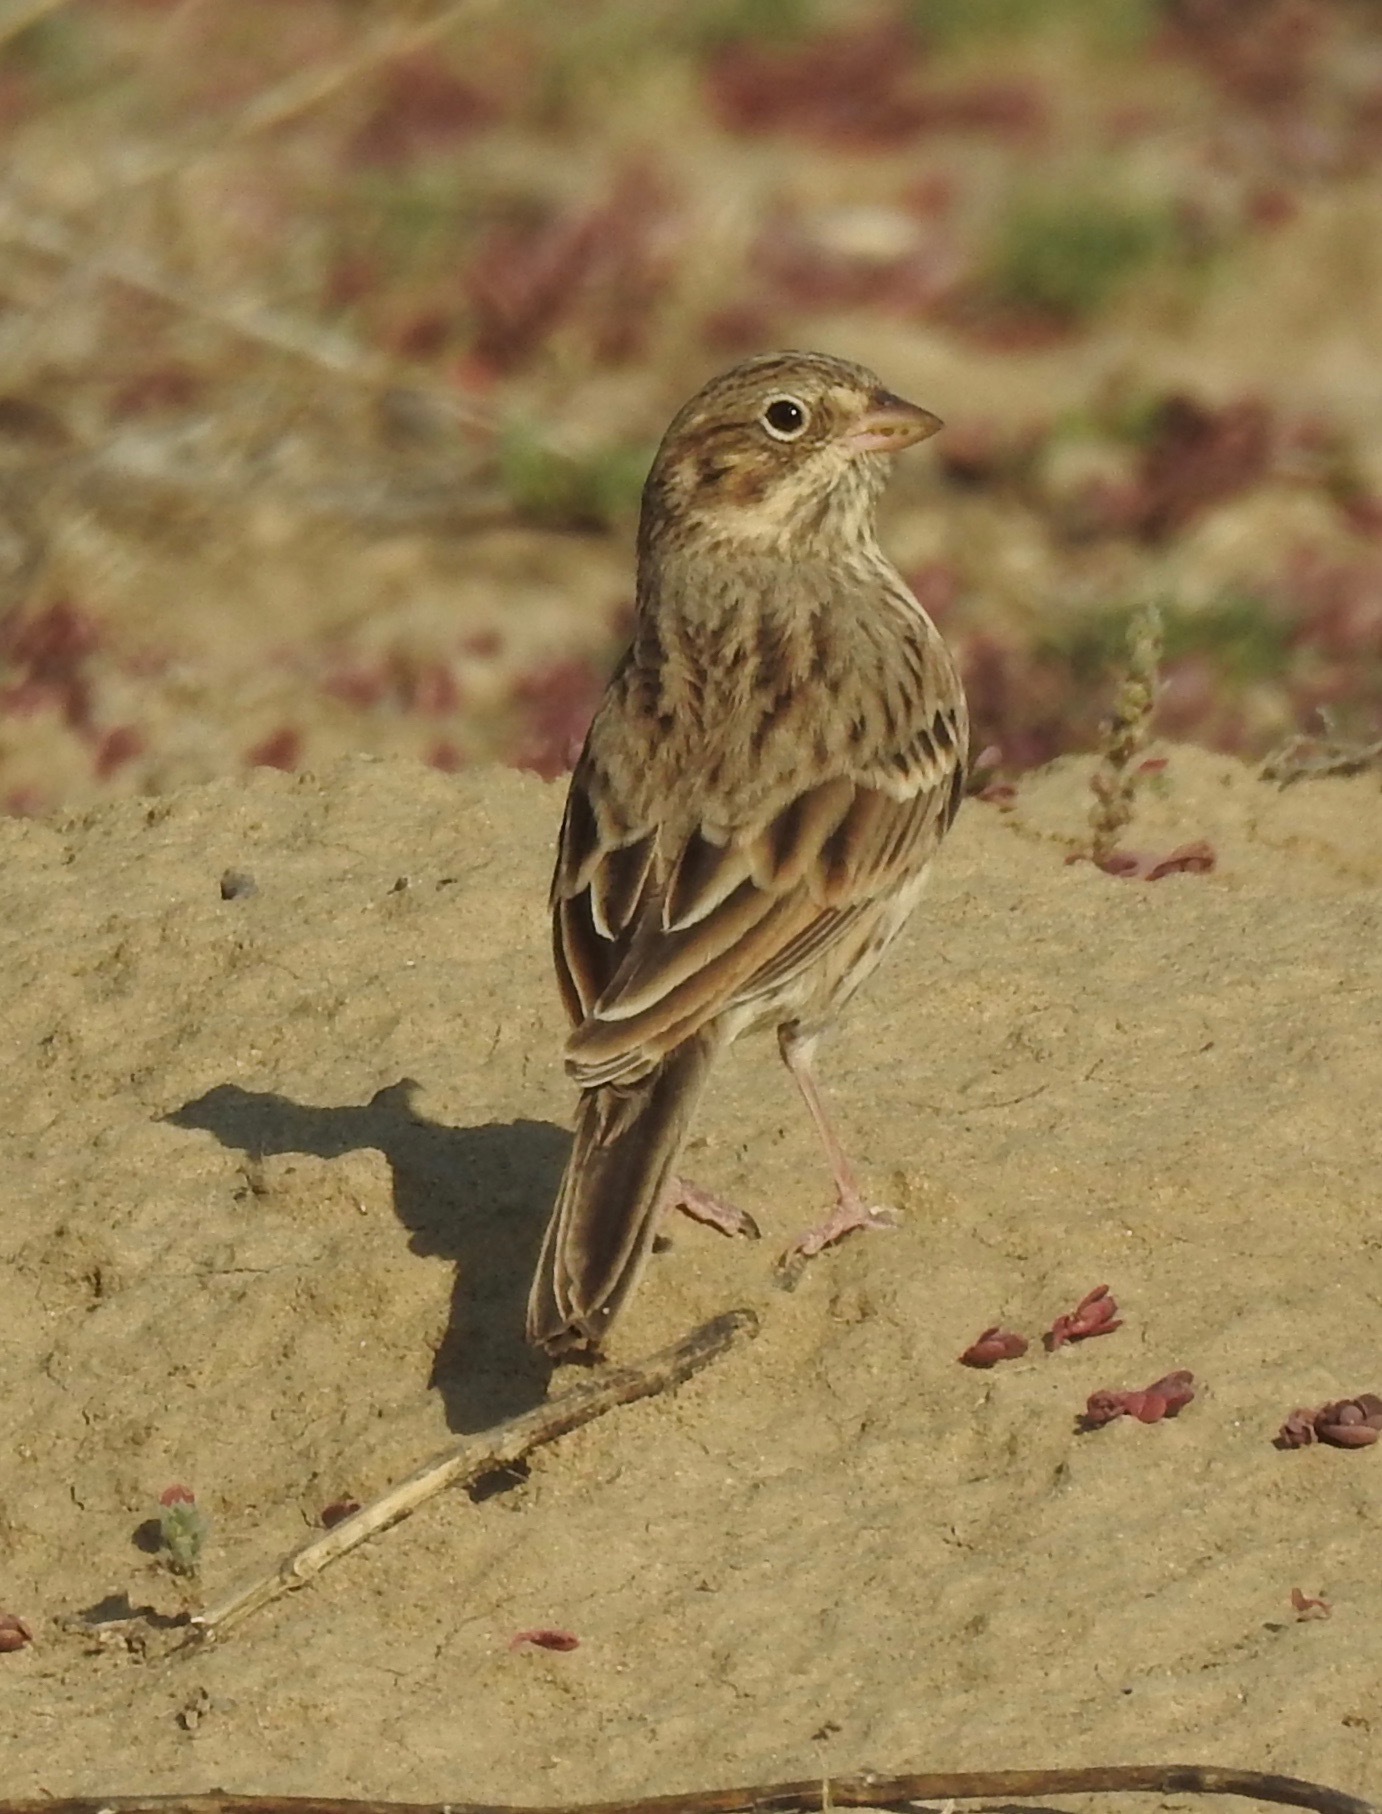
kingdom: Animalia
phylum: Chordata
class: Aves
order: Passeriformes
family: Passerellidae
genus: Pooecetes
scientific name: Pooecetes gramineus
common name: Vesper sparrow
